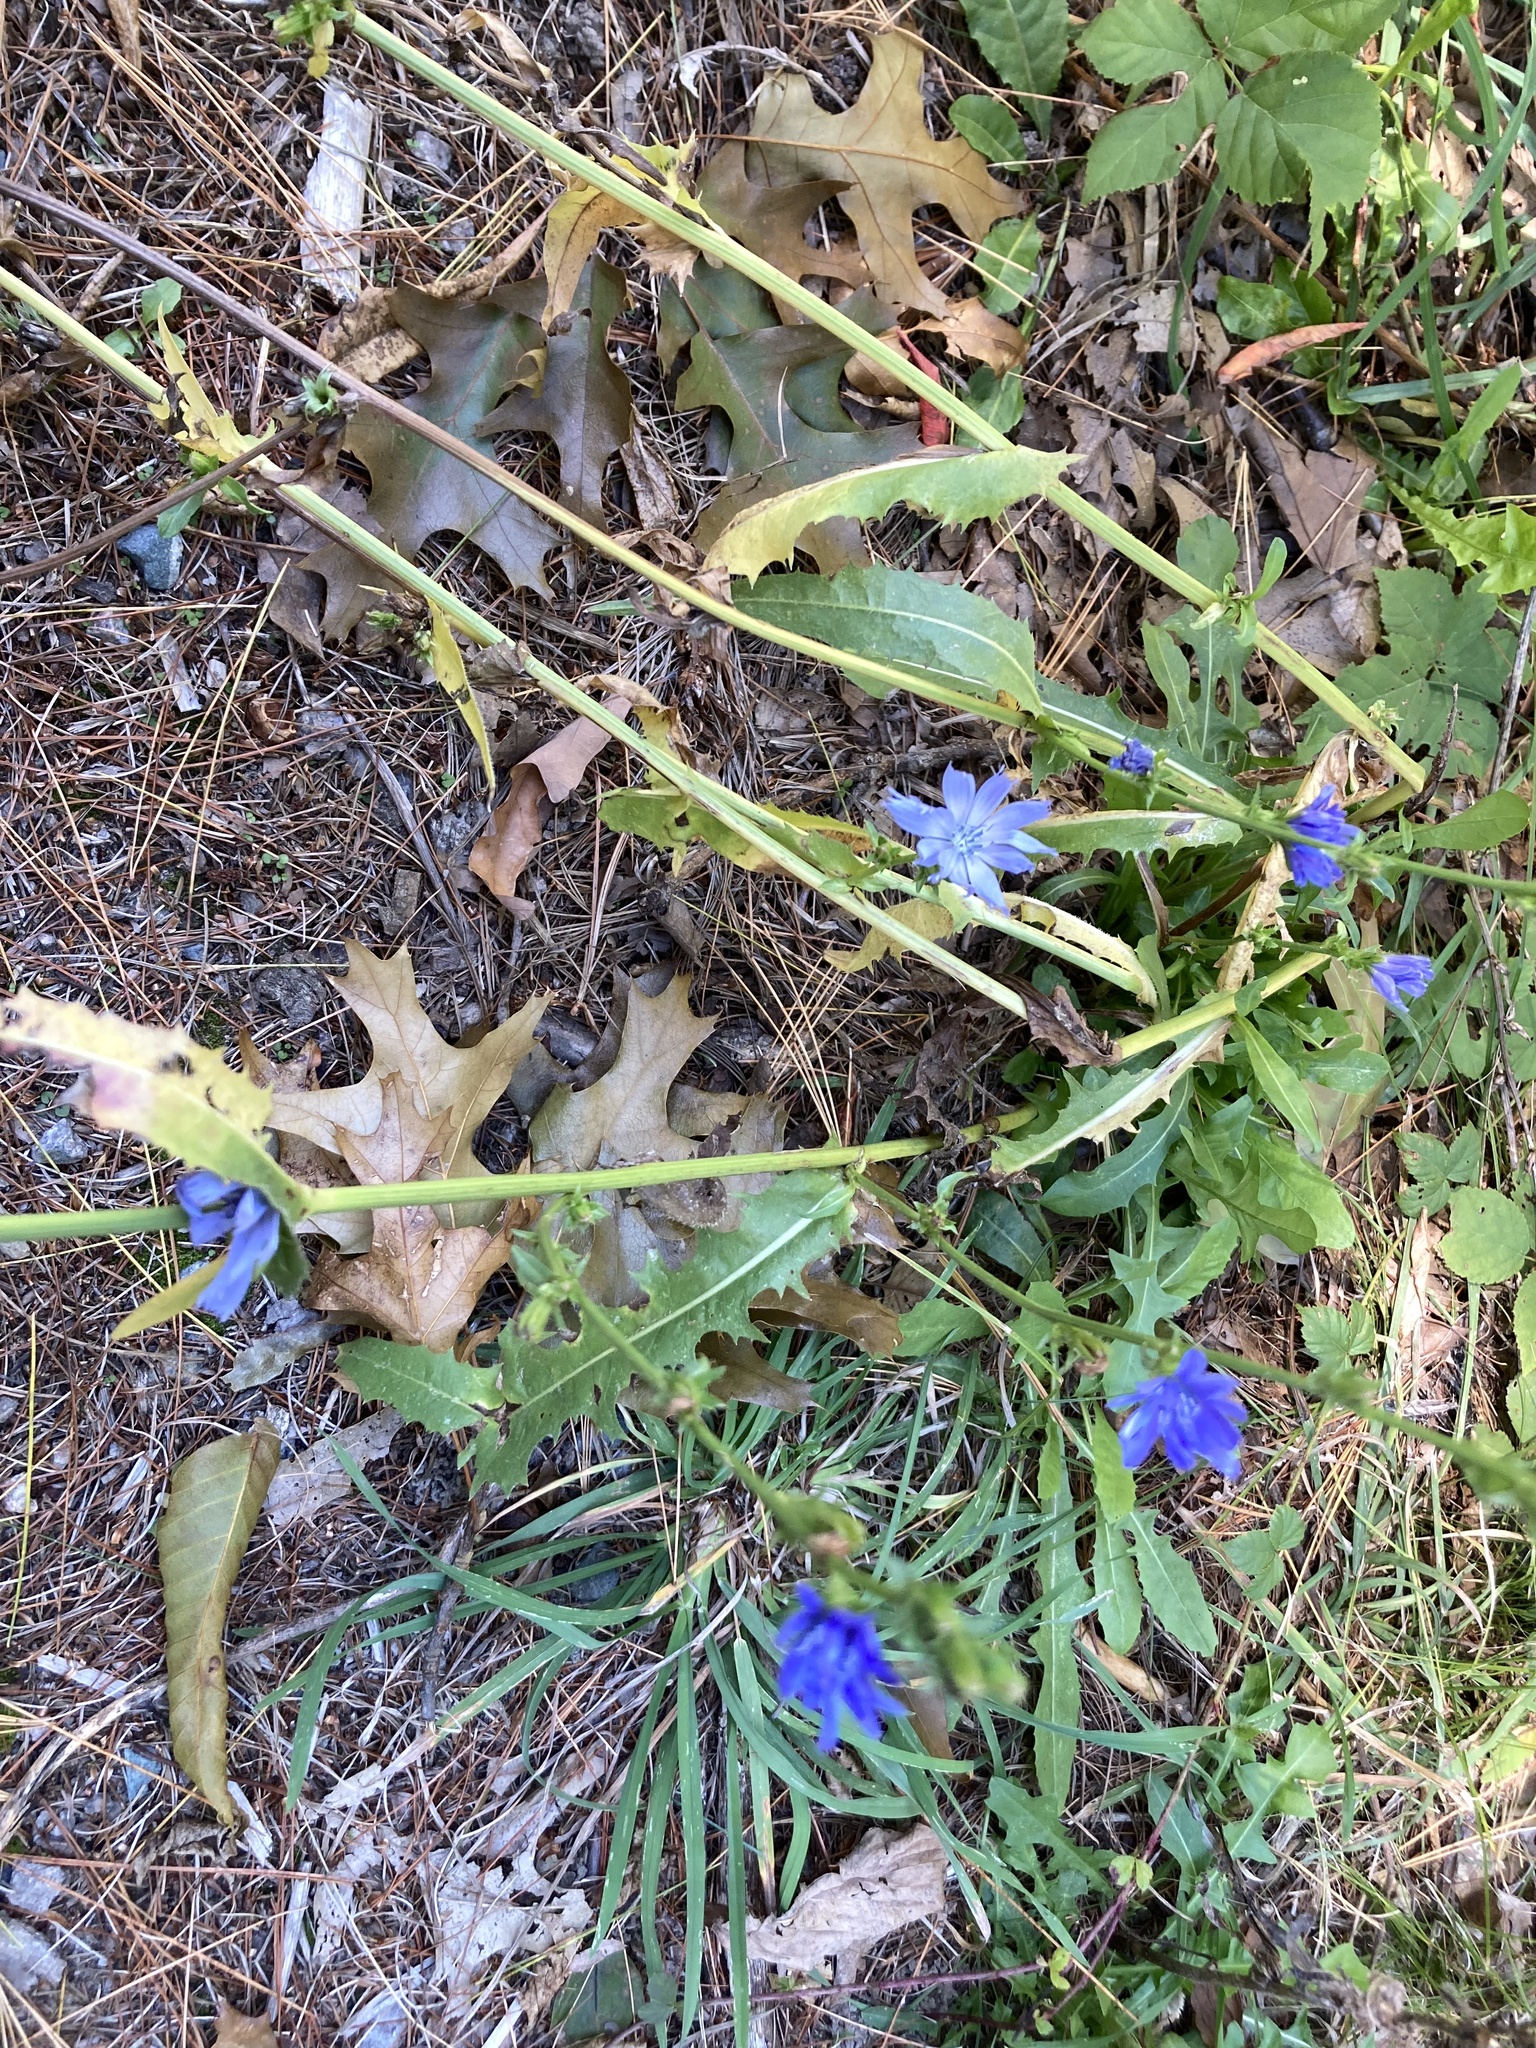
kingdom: Plantae
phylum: Tracheophyta
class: Magnoliopsida
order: Asterales
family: Asteraceae
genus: Cichorium
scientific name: Cichorium intybus
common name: Chicory
